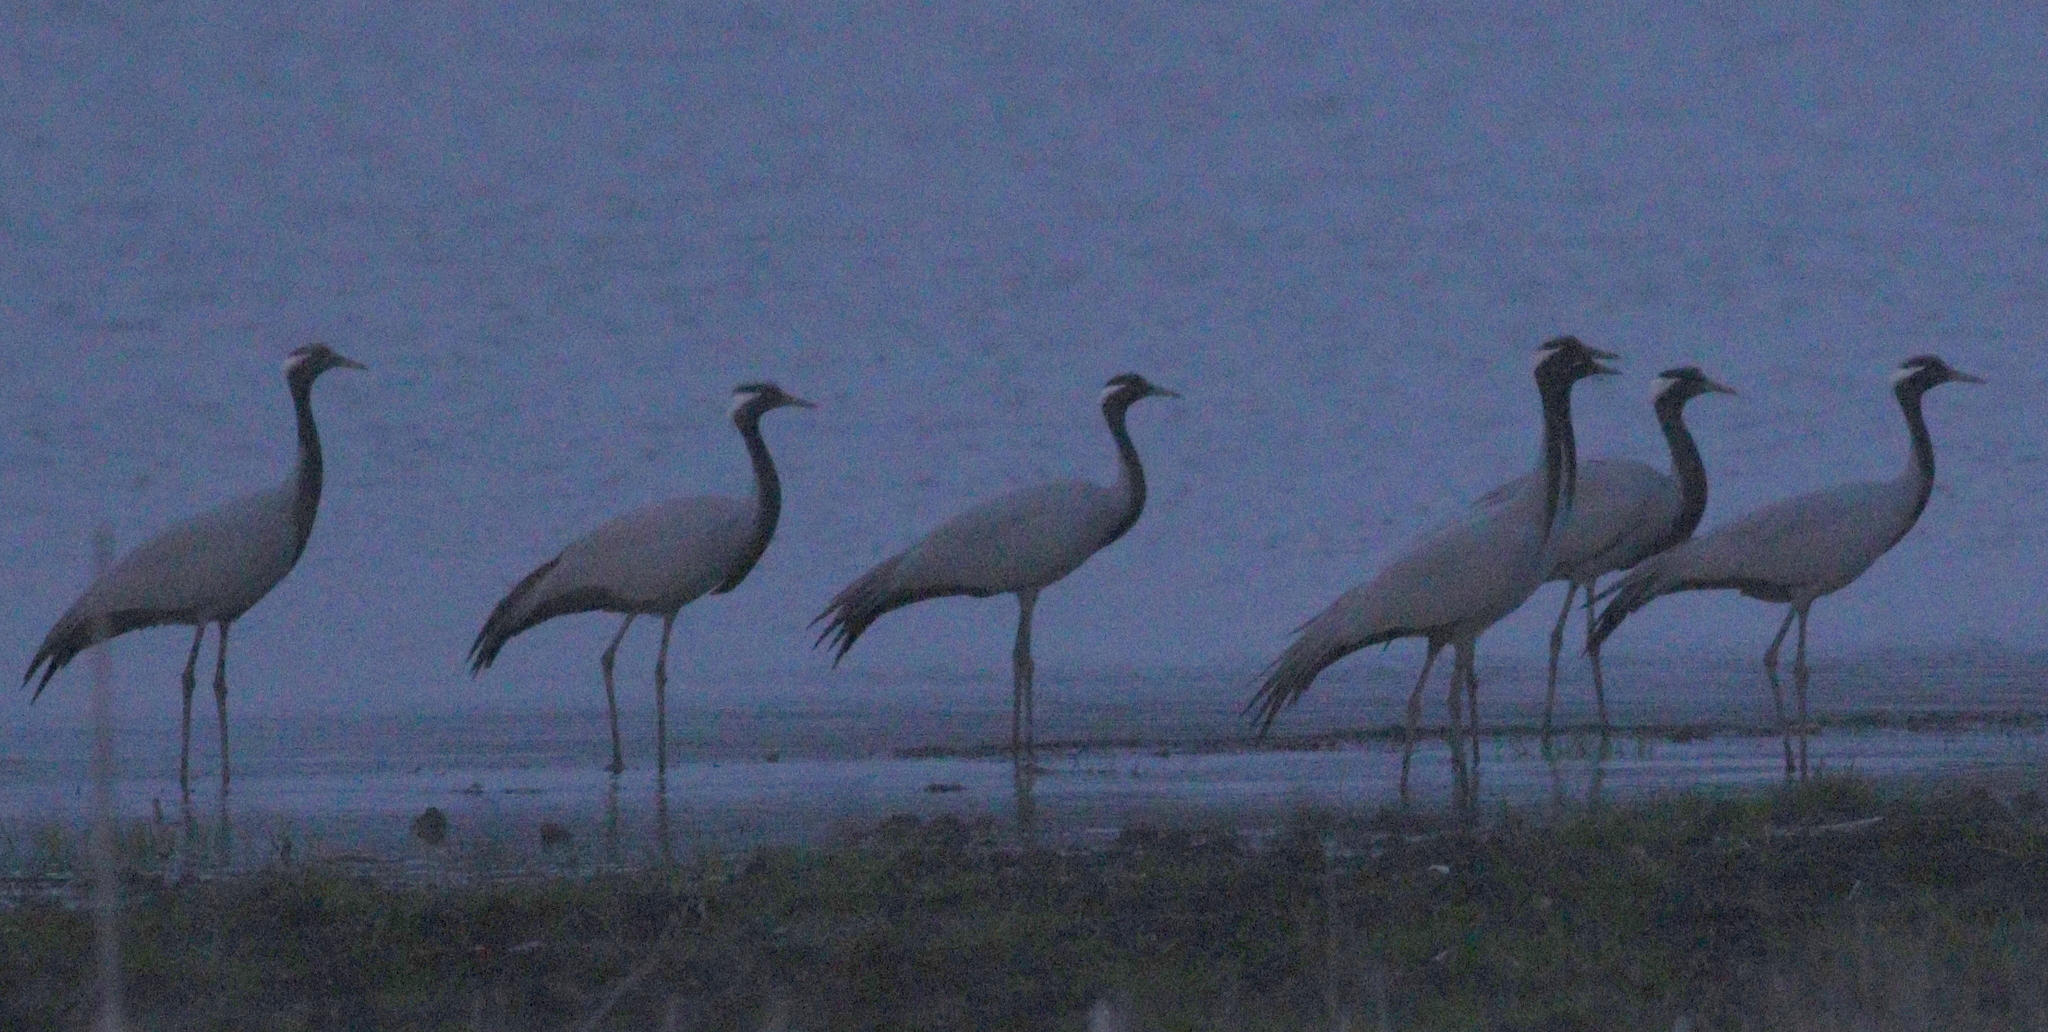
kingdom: Animalia
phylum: Chordata
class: Aves
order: Gruiformes
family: Gruidae
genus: Anthropoides
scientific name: Anthropoides virgo
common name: Demoiselle crane
